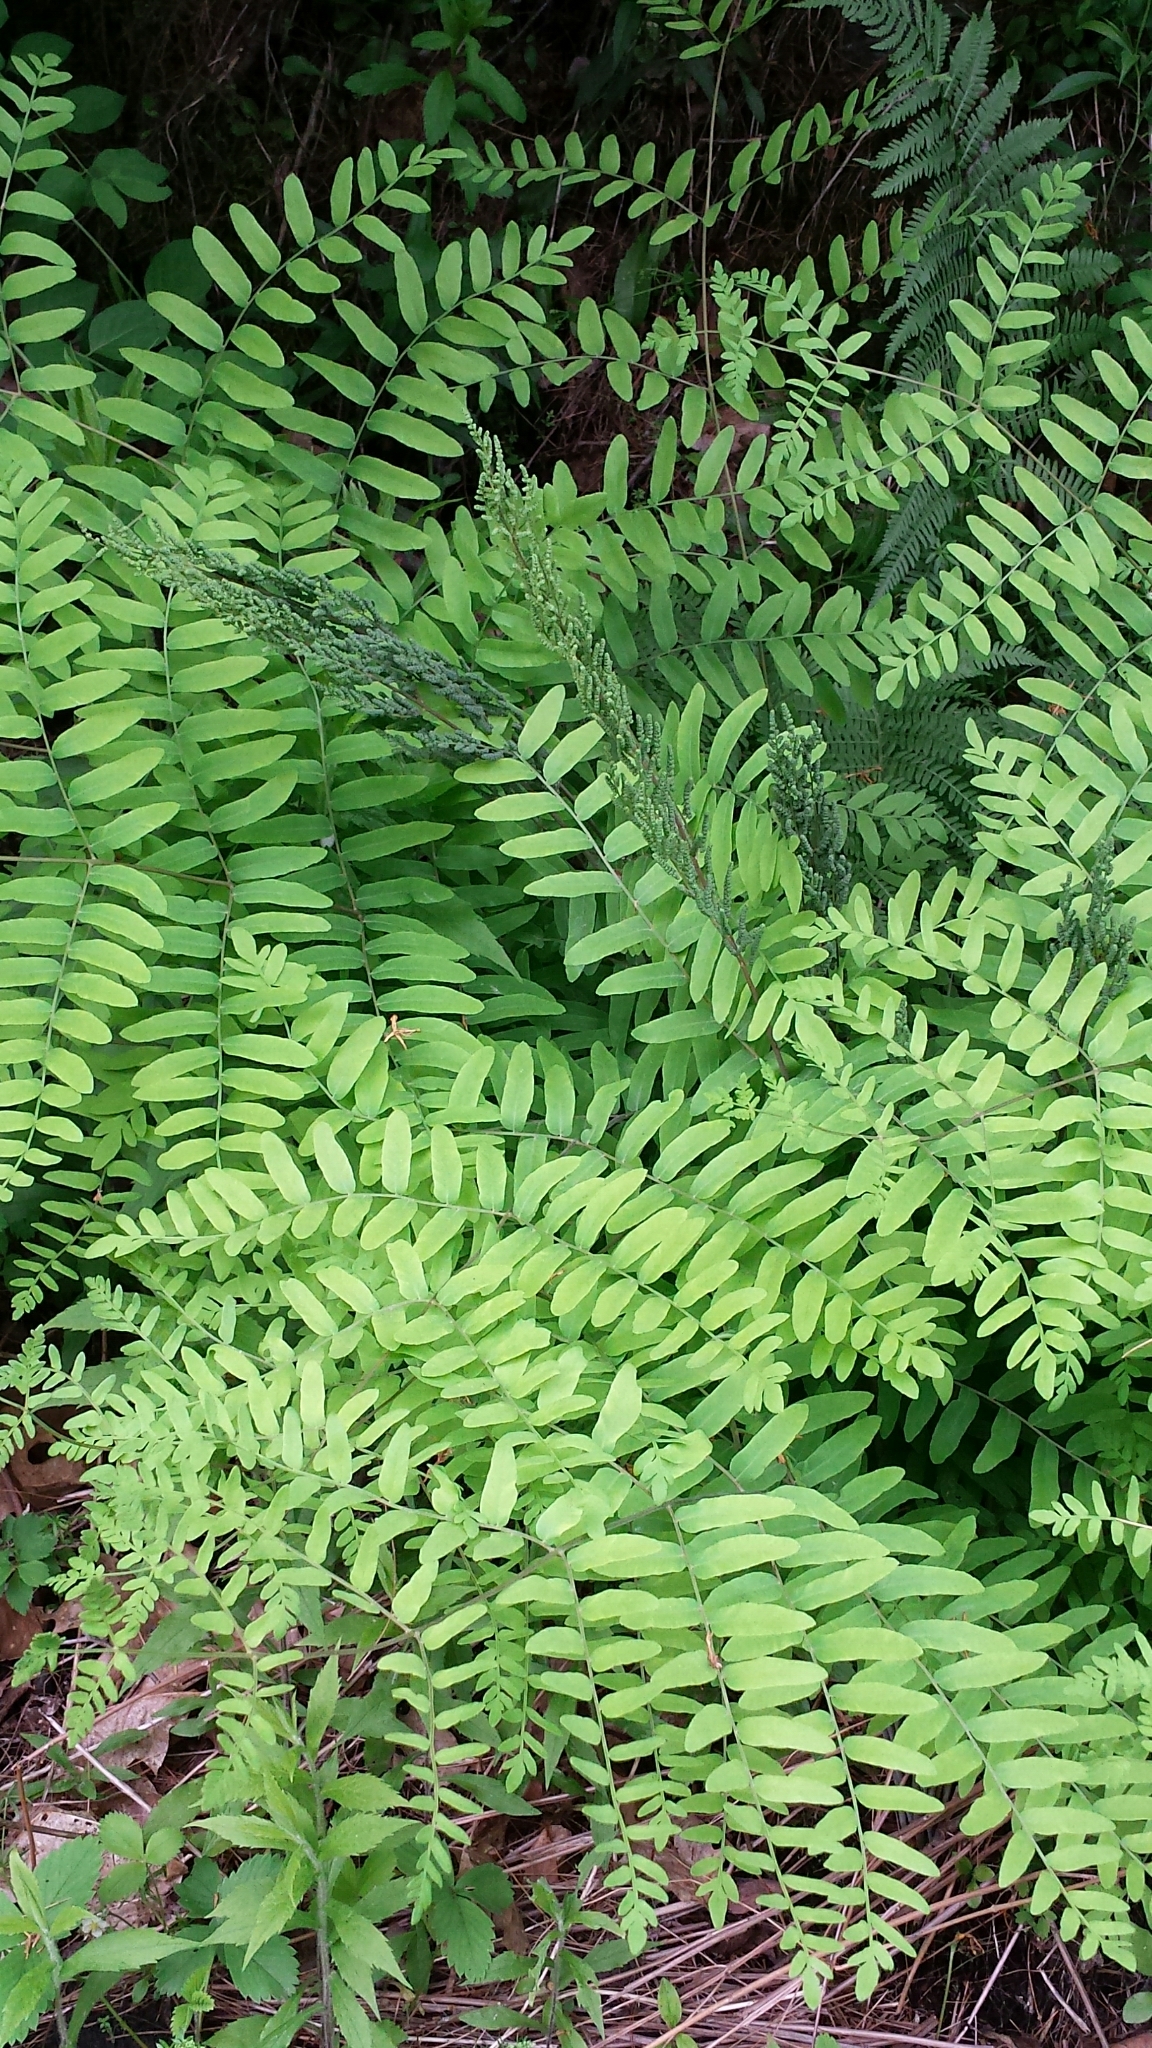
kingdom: Plantae
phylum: Tracheophyta
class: Polypodiopsida
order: Osmundales
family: Osmundaceae
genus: Osmunda
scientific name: Osmunda spectabilis
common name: American royal fern
